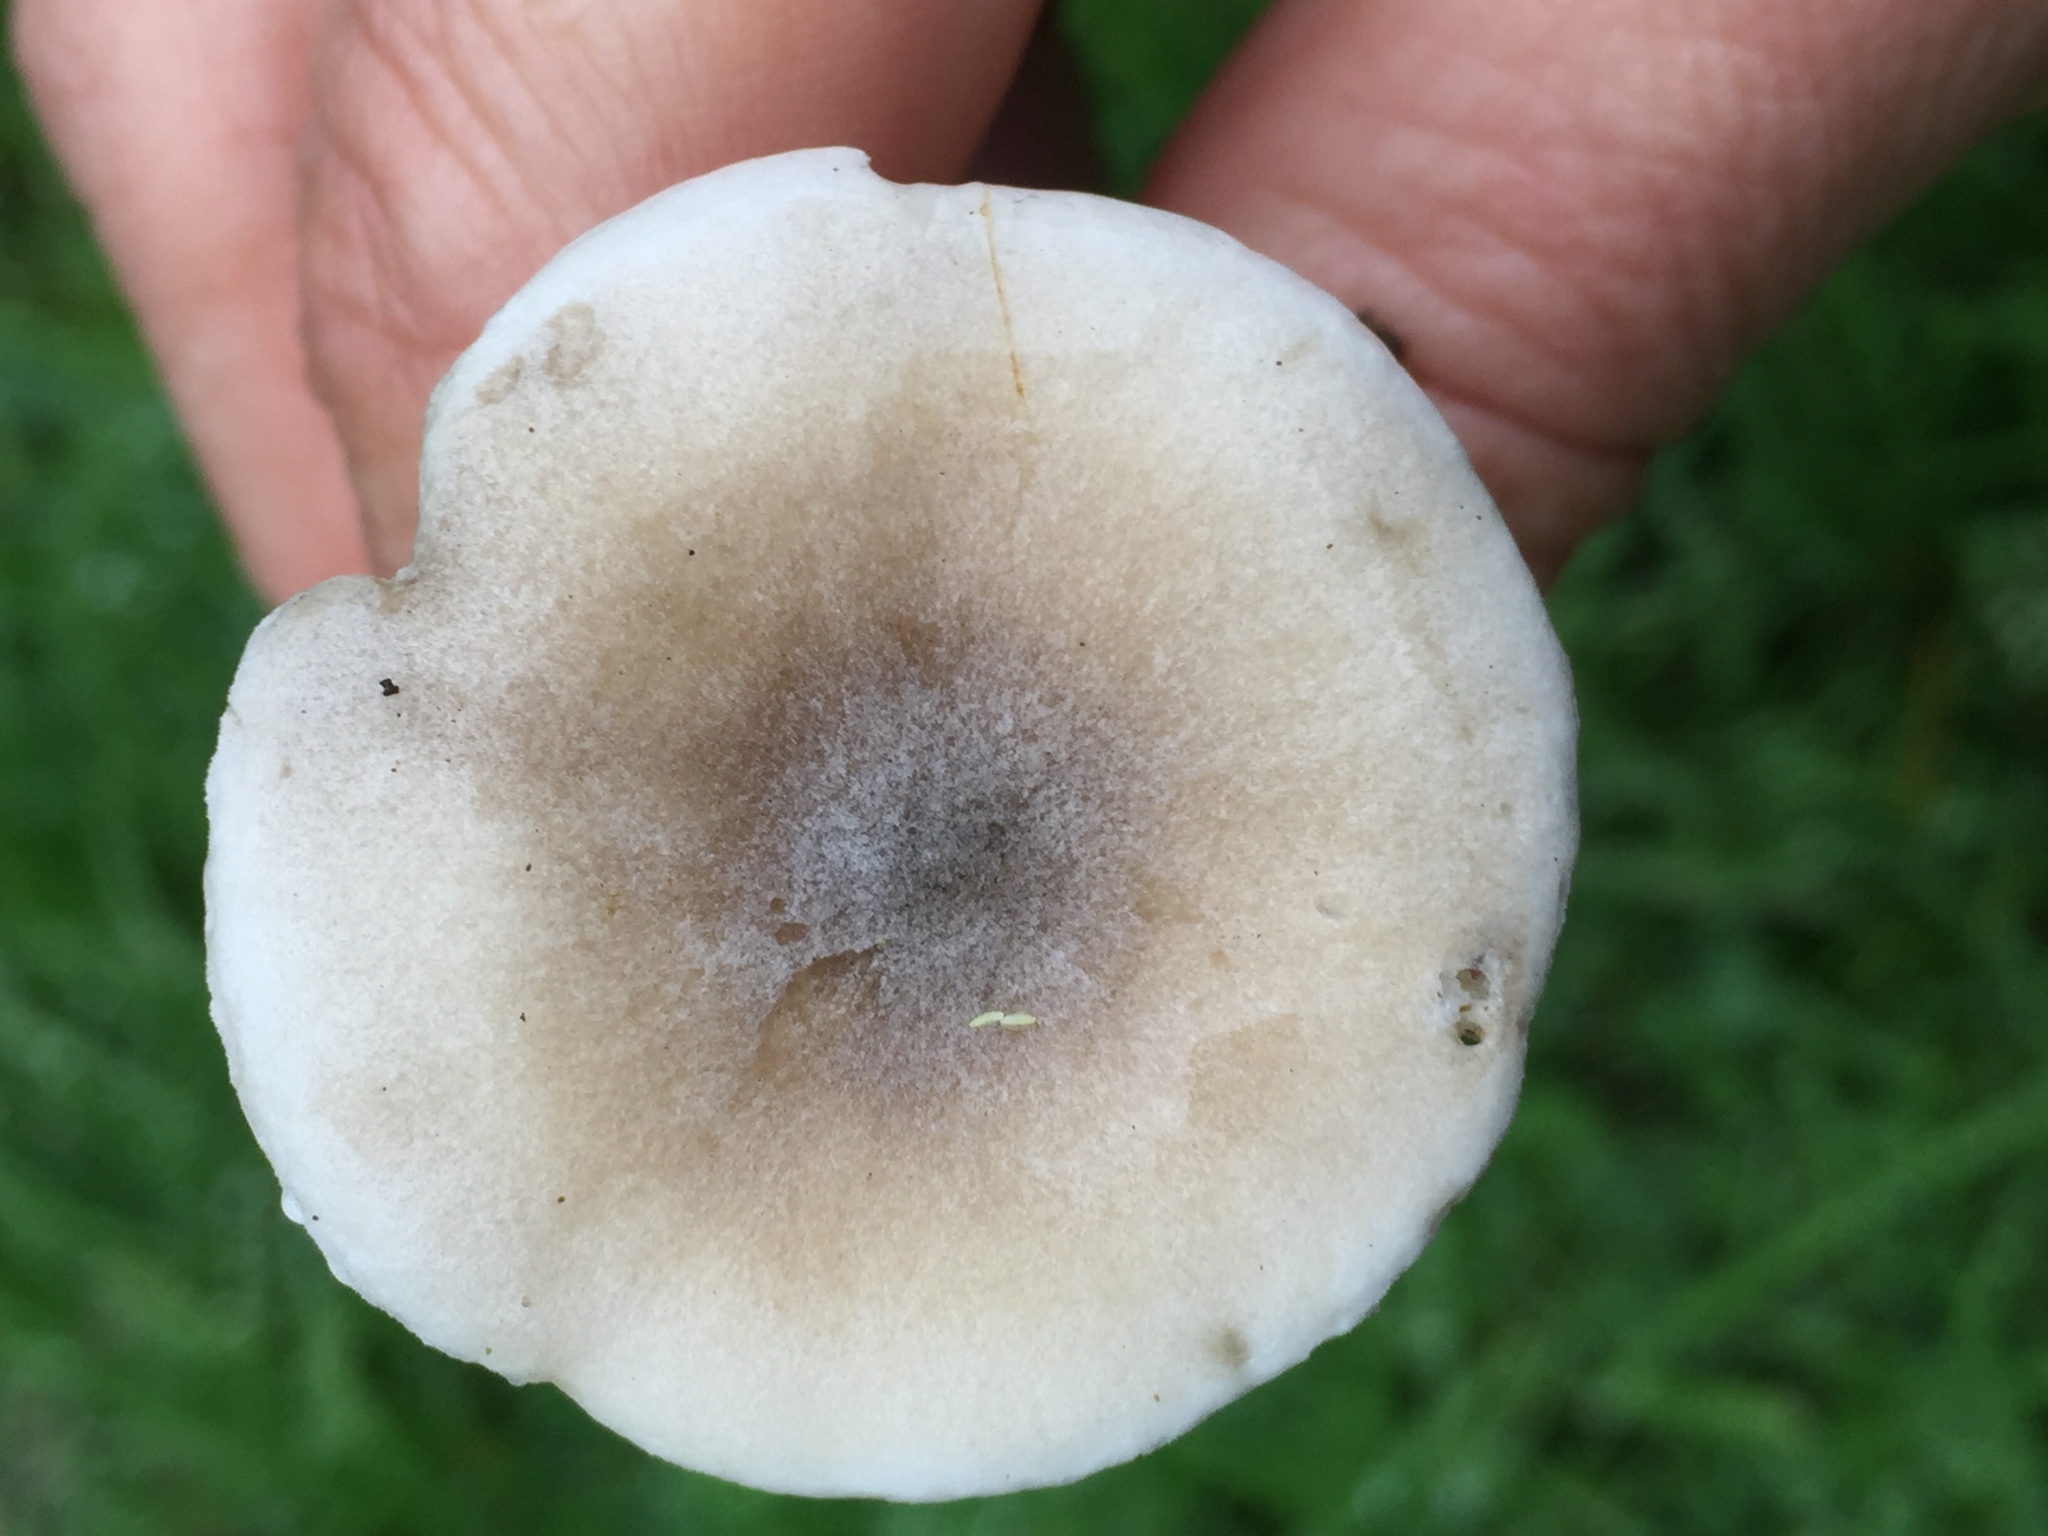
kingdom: Fungi
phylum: Basidiomycota
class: Agaricomycetes
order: Agaricales
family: Tricholomataceae
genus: Melanoleuca
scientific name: Melanoleuca polioleuca
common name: Common cavalier
